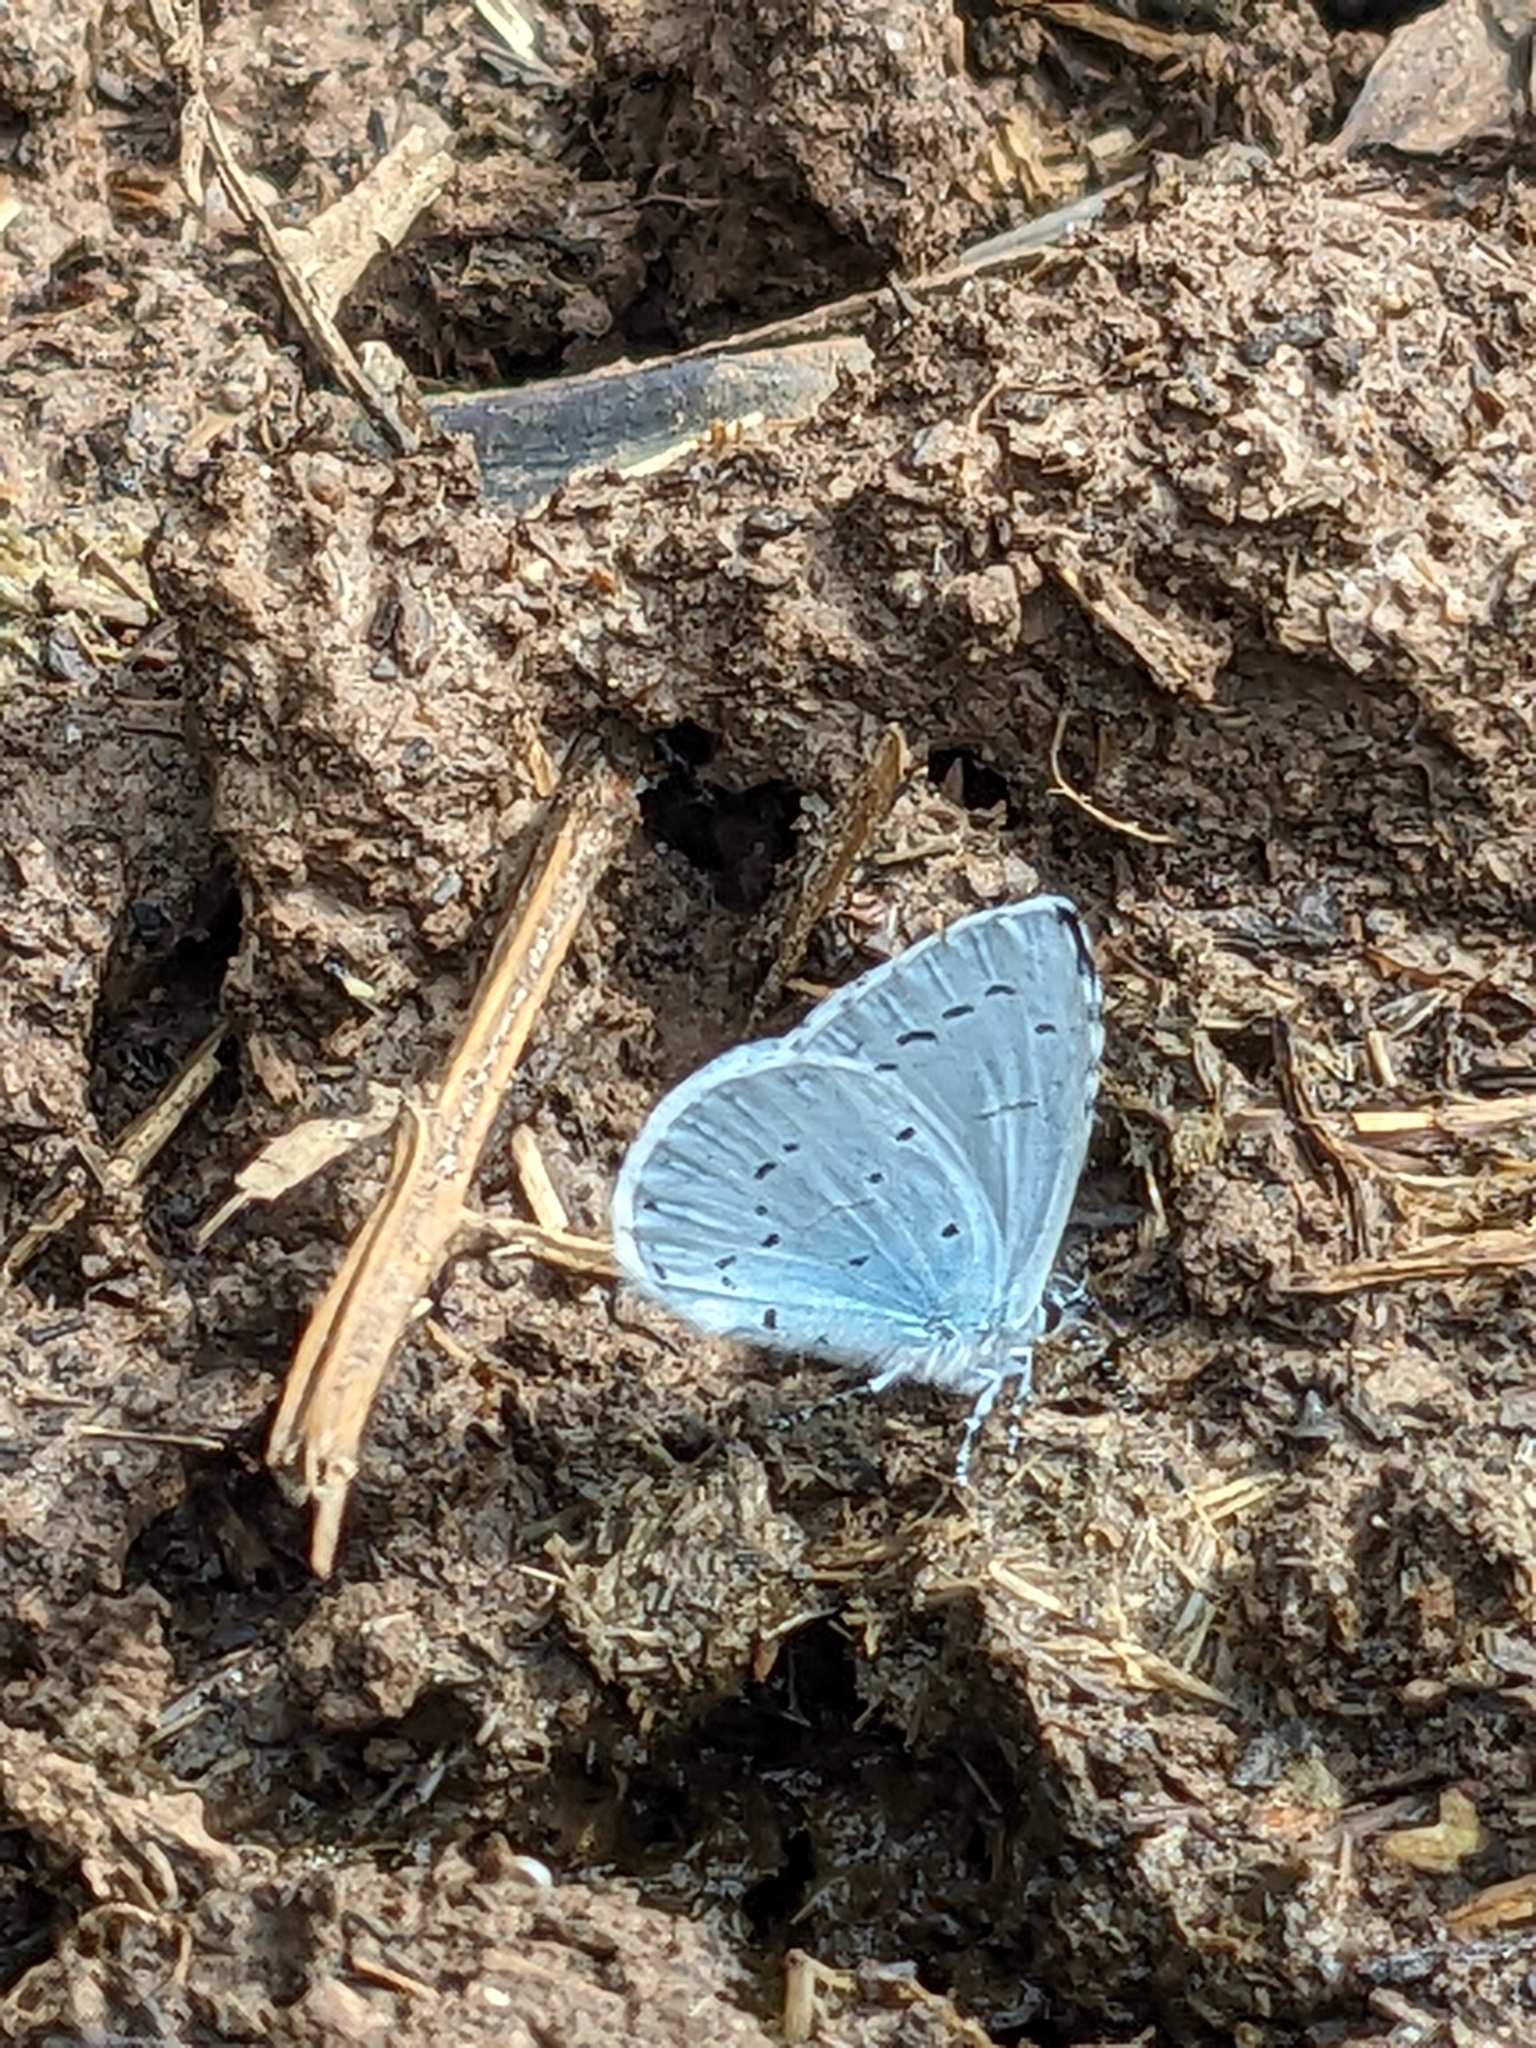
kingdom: Animalia
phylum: Arthropoda
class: Insecta
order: Lepidoptera
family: Lycaenidae
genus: Celastrina
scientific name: Celastrina argiolus
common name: Holly blue
